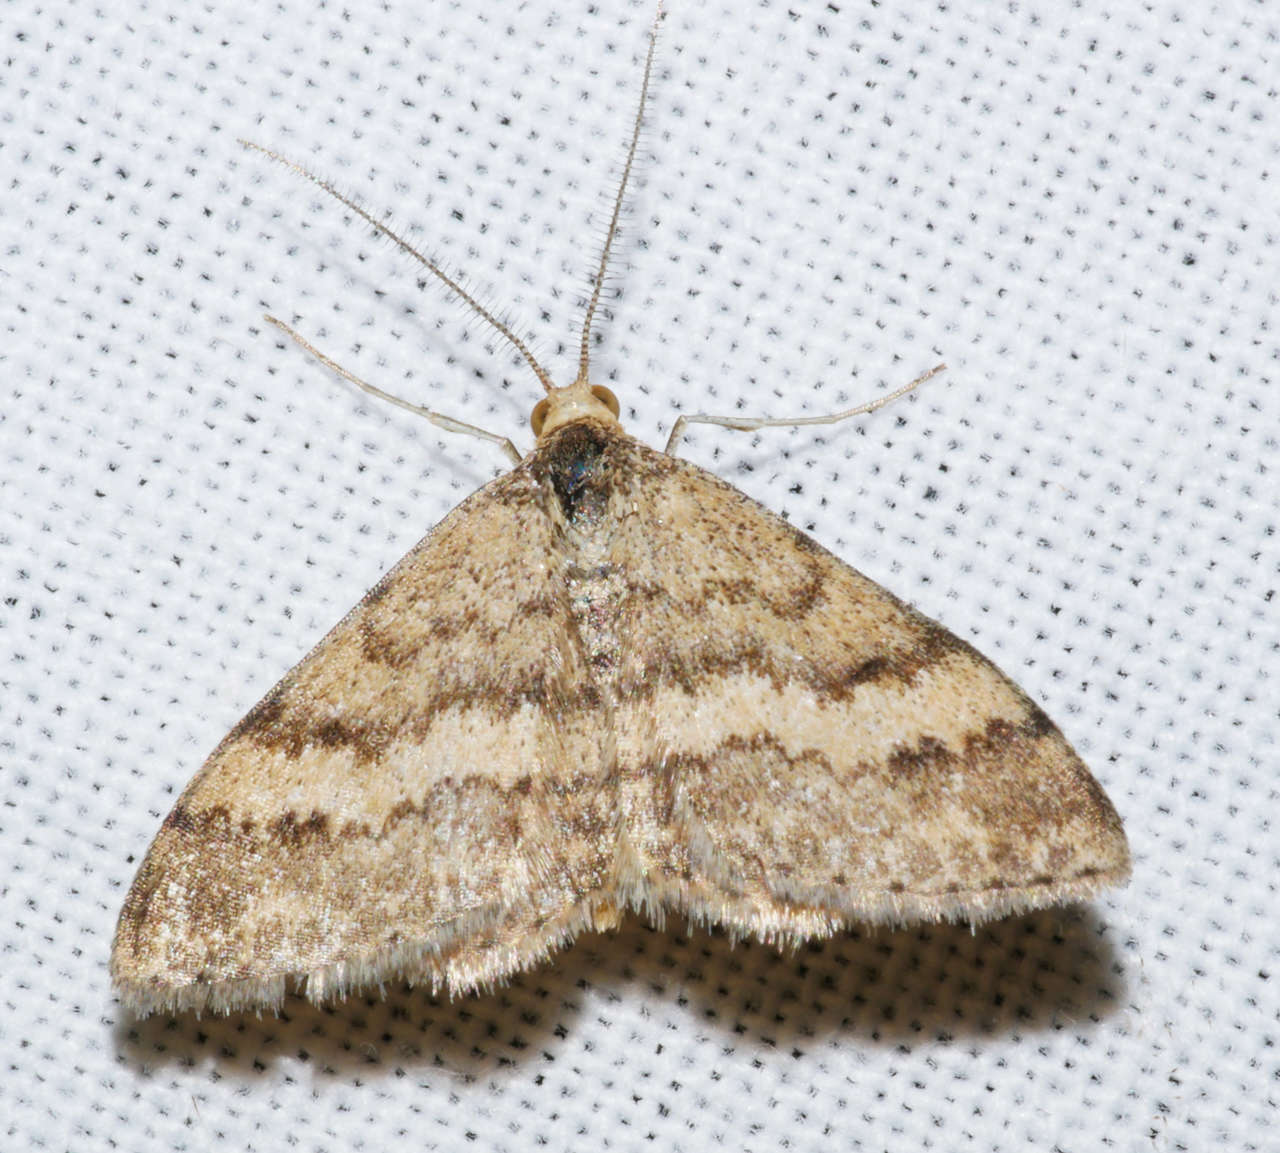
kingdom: Animalia
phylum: Arthropoda
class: Insecta
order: Lepidoptera
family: Geometridae
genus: Scopula
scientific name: Scopula rubraria
